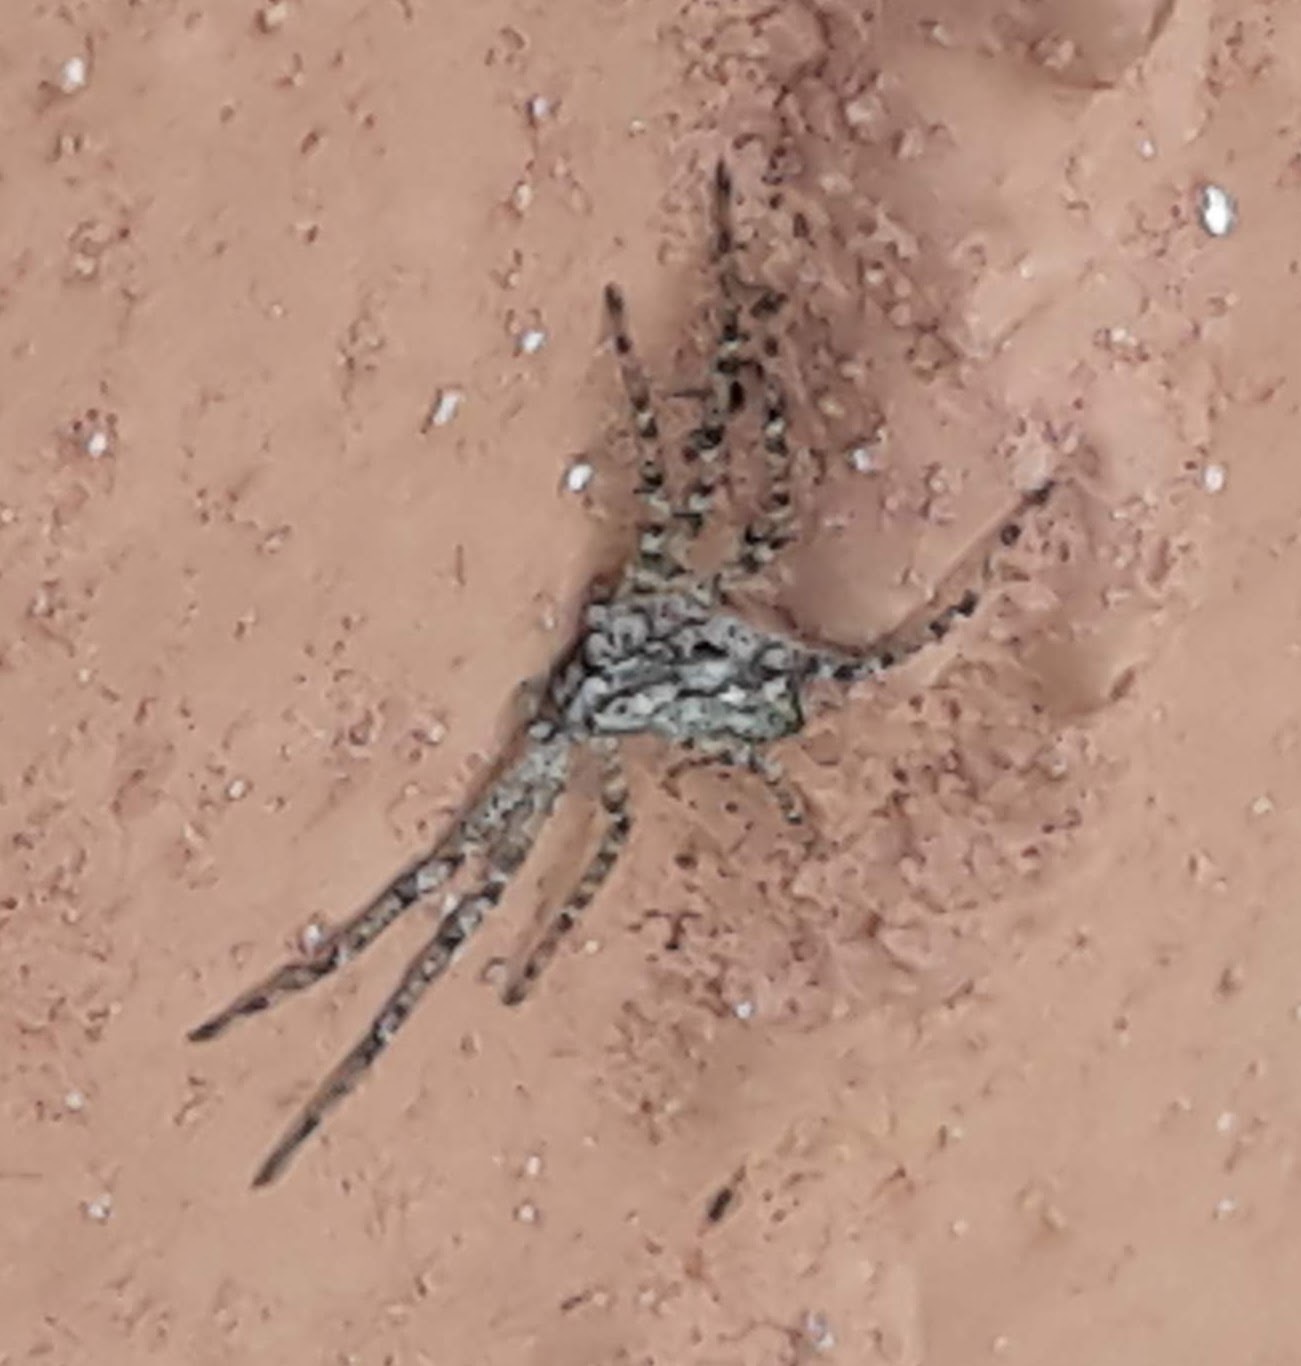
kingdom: Animalia
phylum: Arthropoda
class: Arachnida
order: Araneae
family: Philodromidae
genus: Philodromus
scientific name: Philodromus
